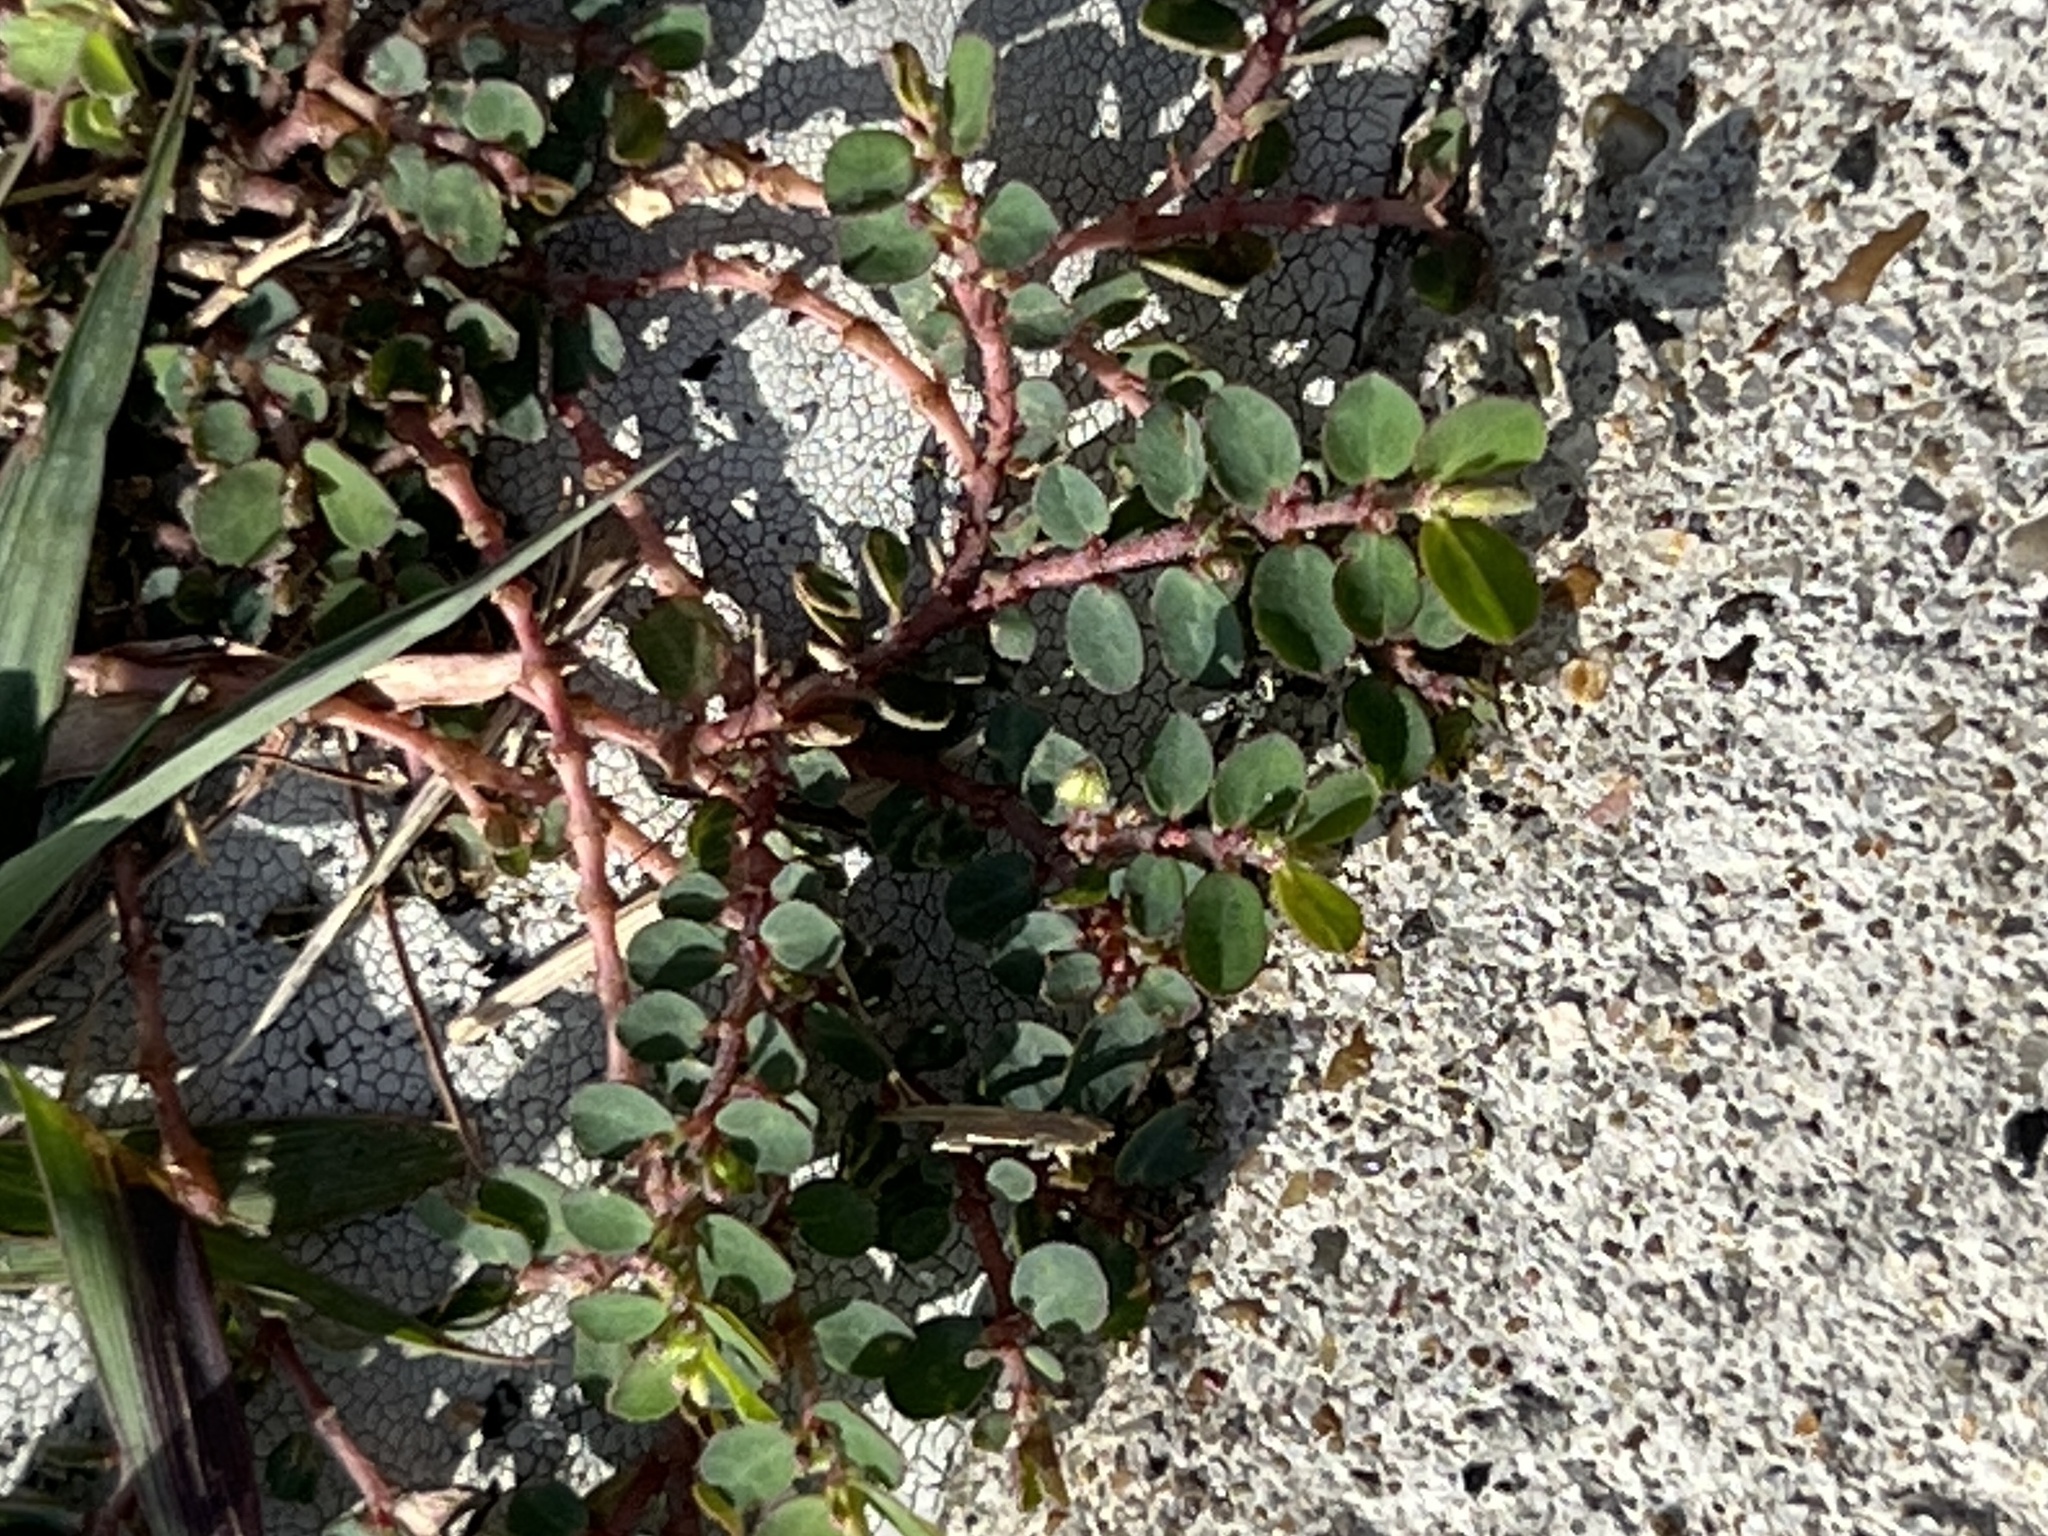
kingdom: Plantae
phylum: Tracheophyta
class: Magnoliopsida
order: Malpighiales
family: Euphorbiaceae
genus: Euphorbia
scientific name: Euphorbia prostrata
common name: Prostrate sandmat
